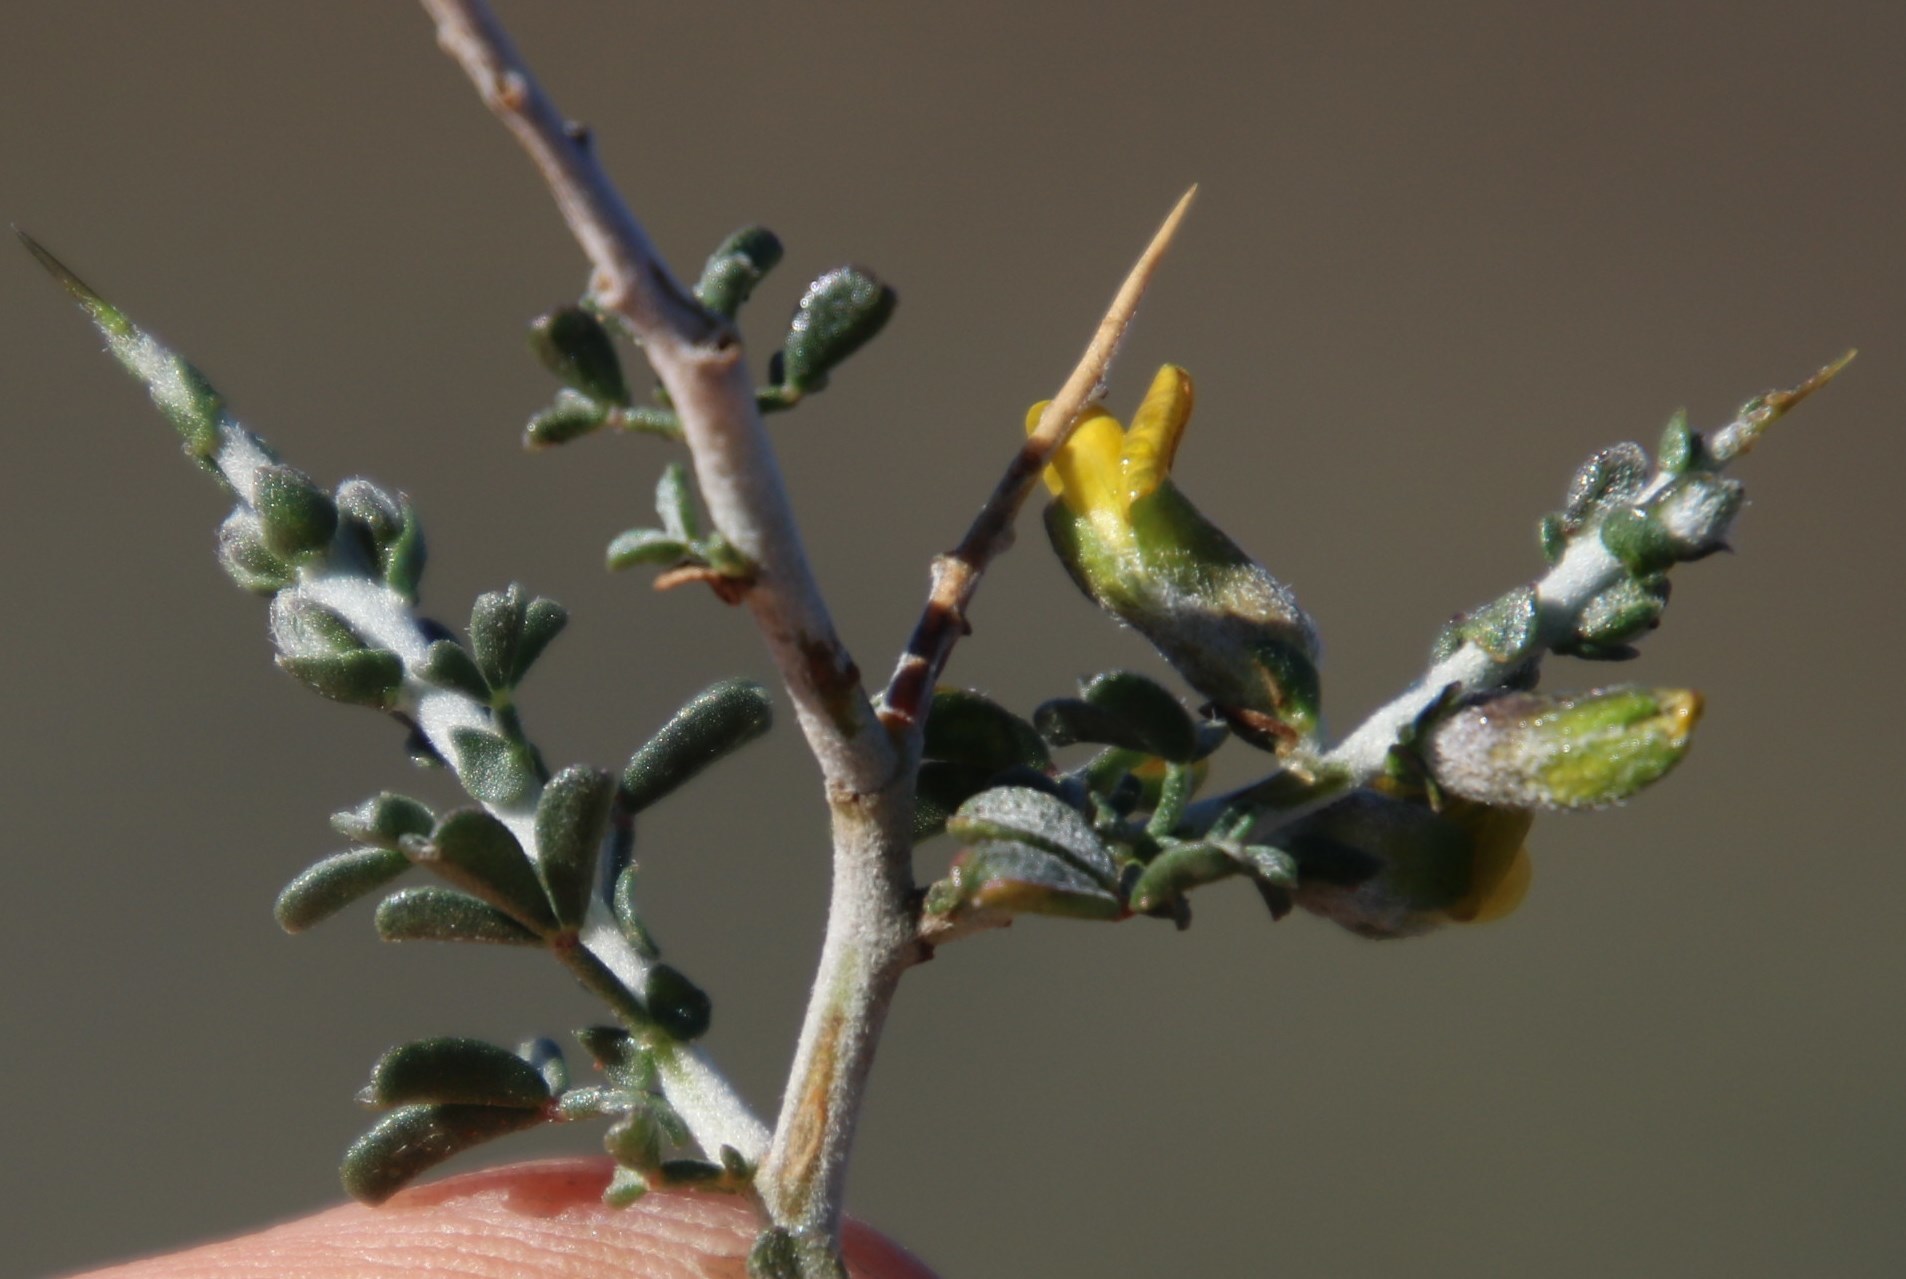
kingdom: Plantae
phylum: Tracheophyta
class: Magnoliopsida
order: Fabales
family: Fabaceae
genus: Melolobium
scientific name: Melolobium candicans
